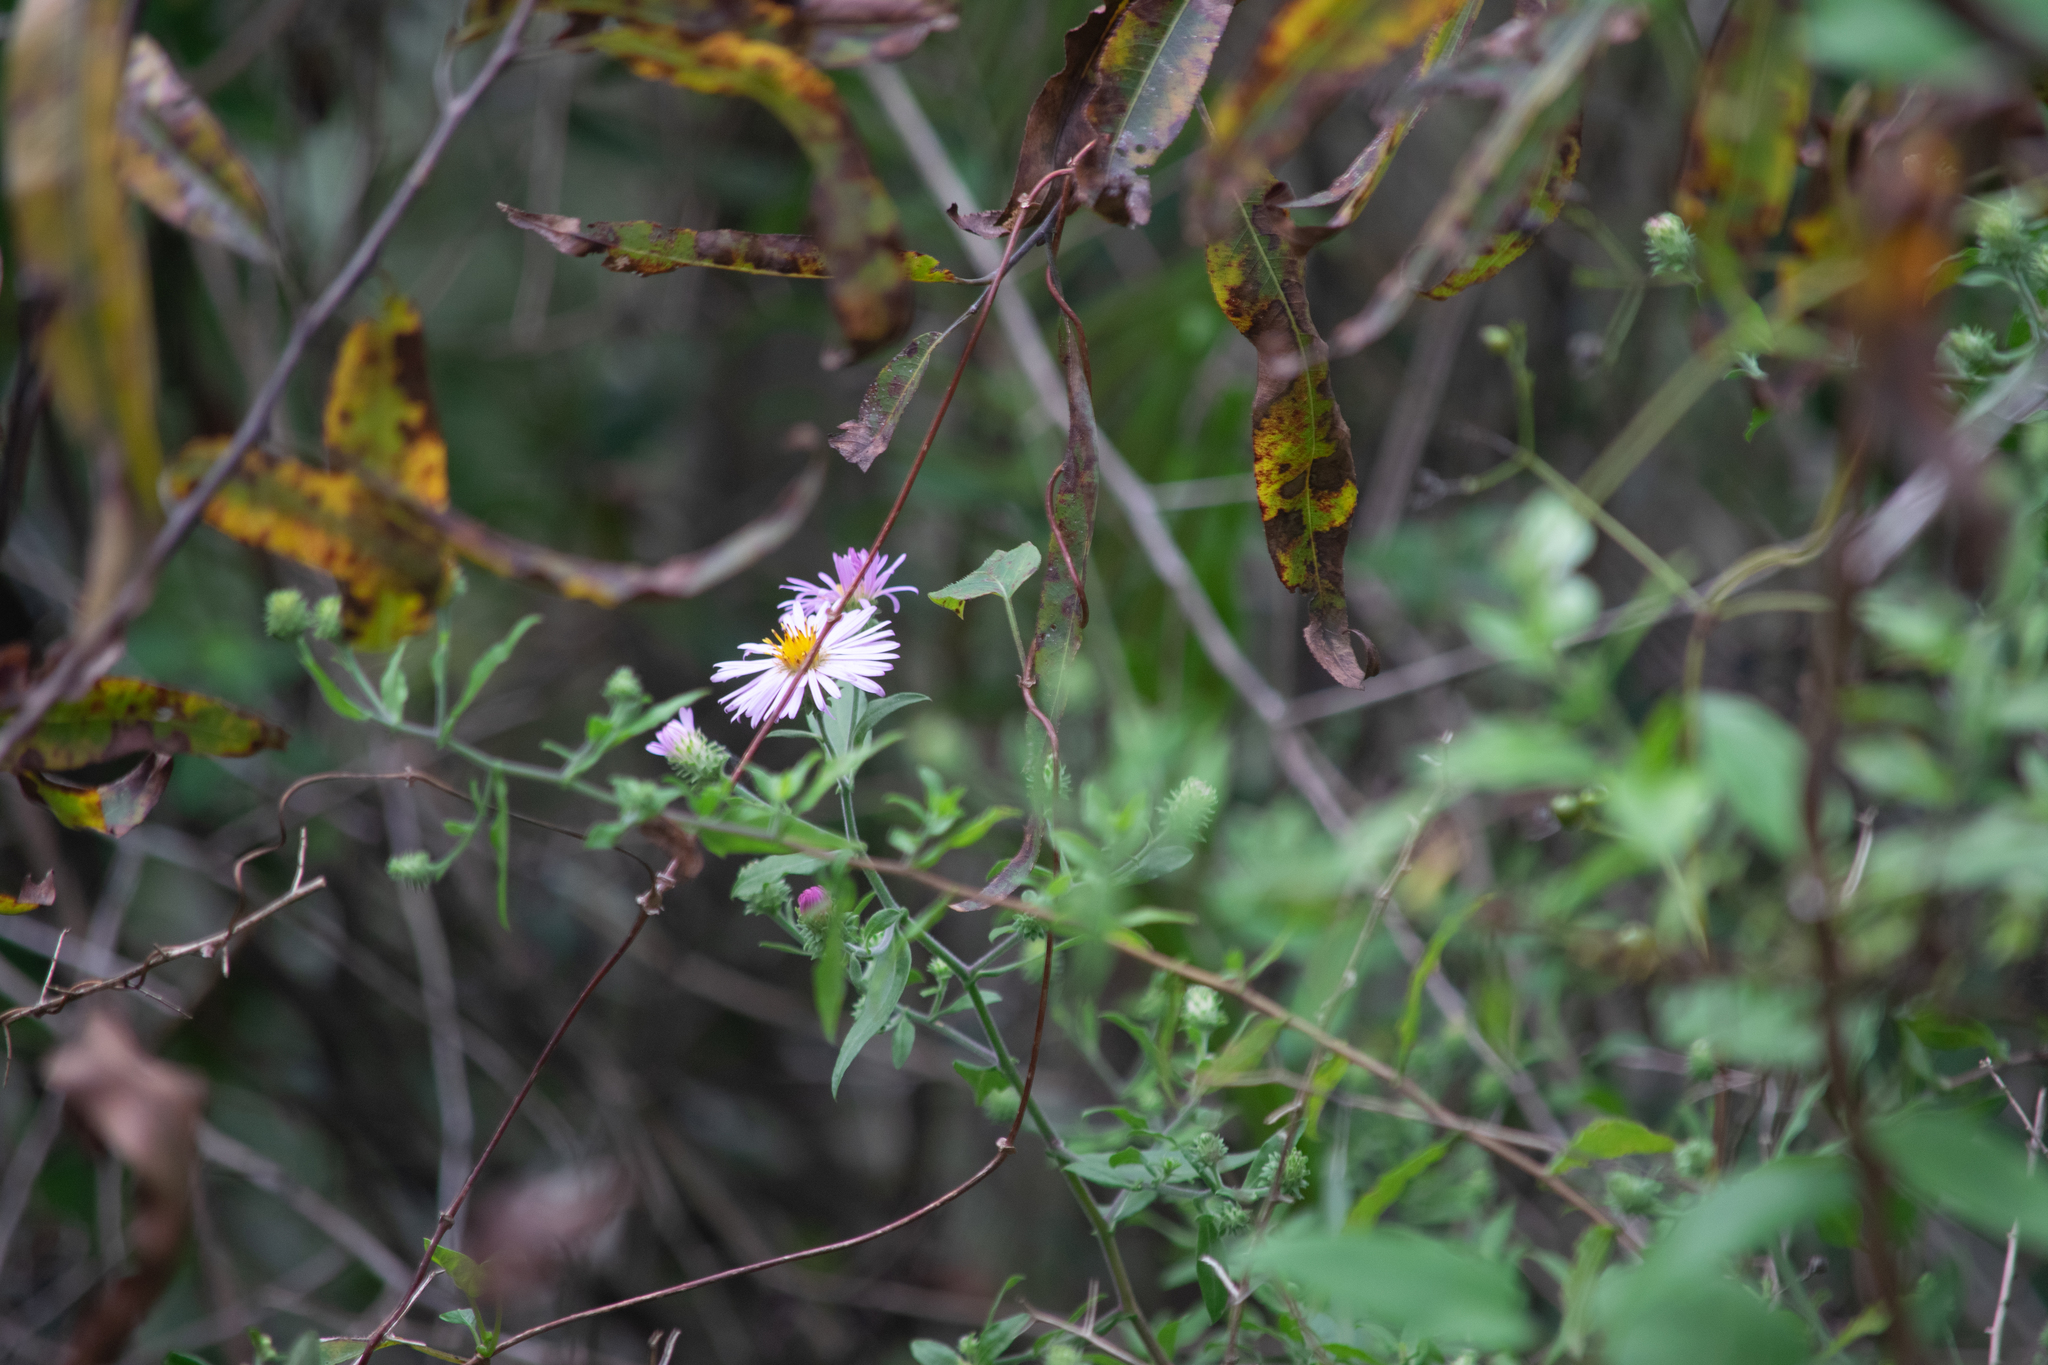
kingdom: Plantae
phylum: Tracheophyta
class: Magnoliopsida
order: Asterales
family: Asteraceae
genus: Ampelaster
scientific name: Ampelaster carolinianus
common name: Climbing aster
